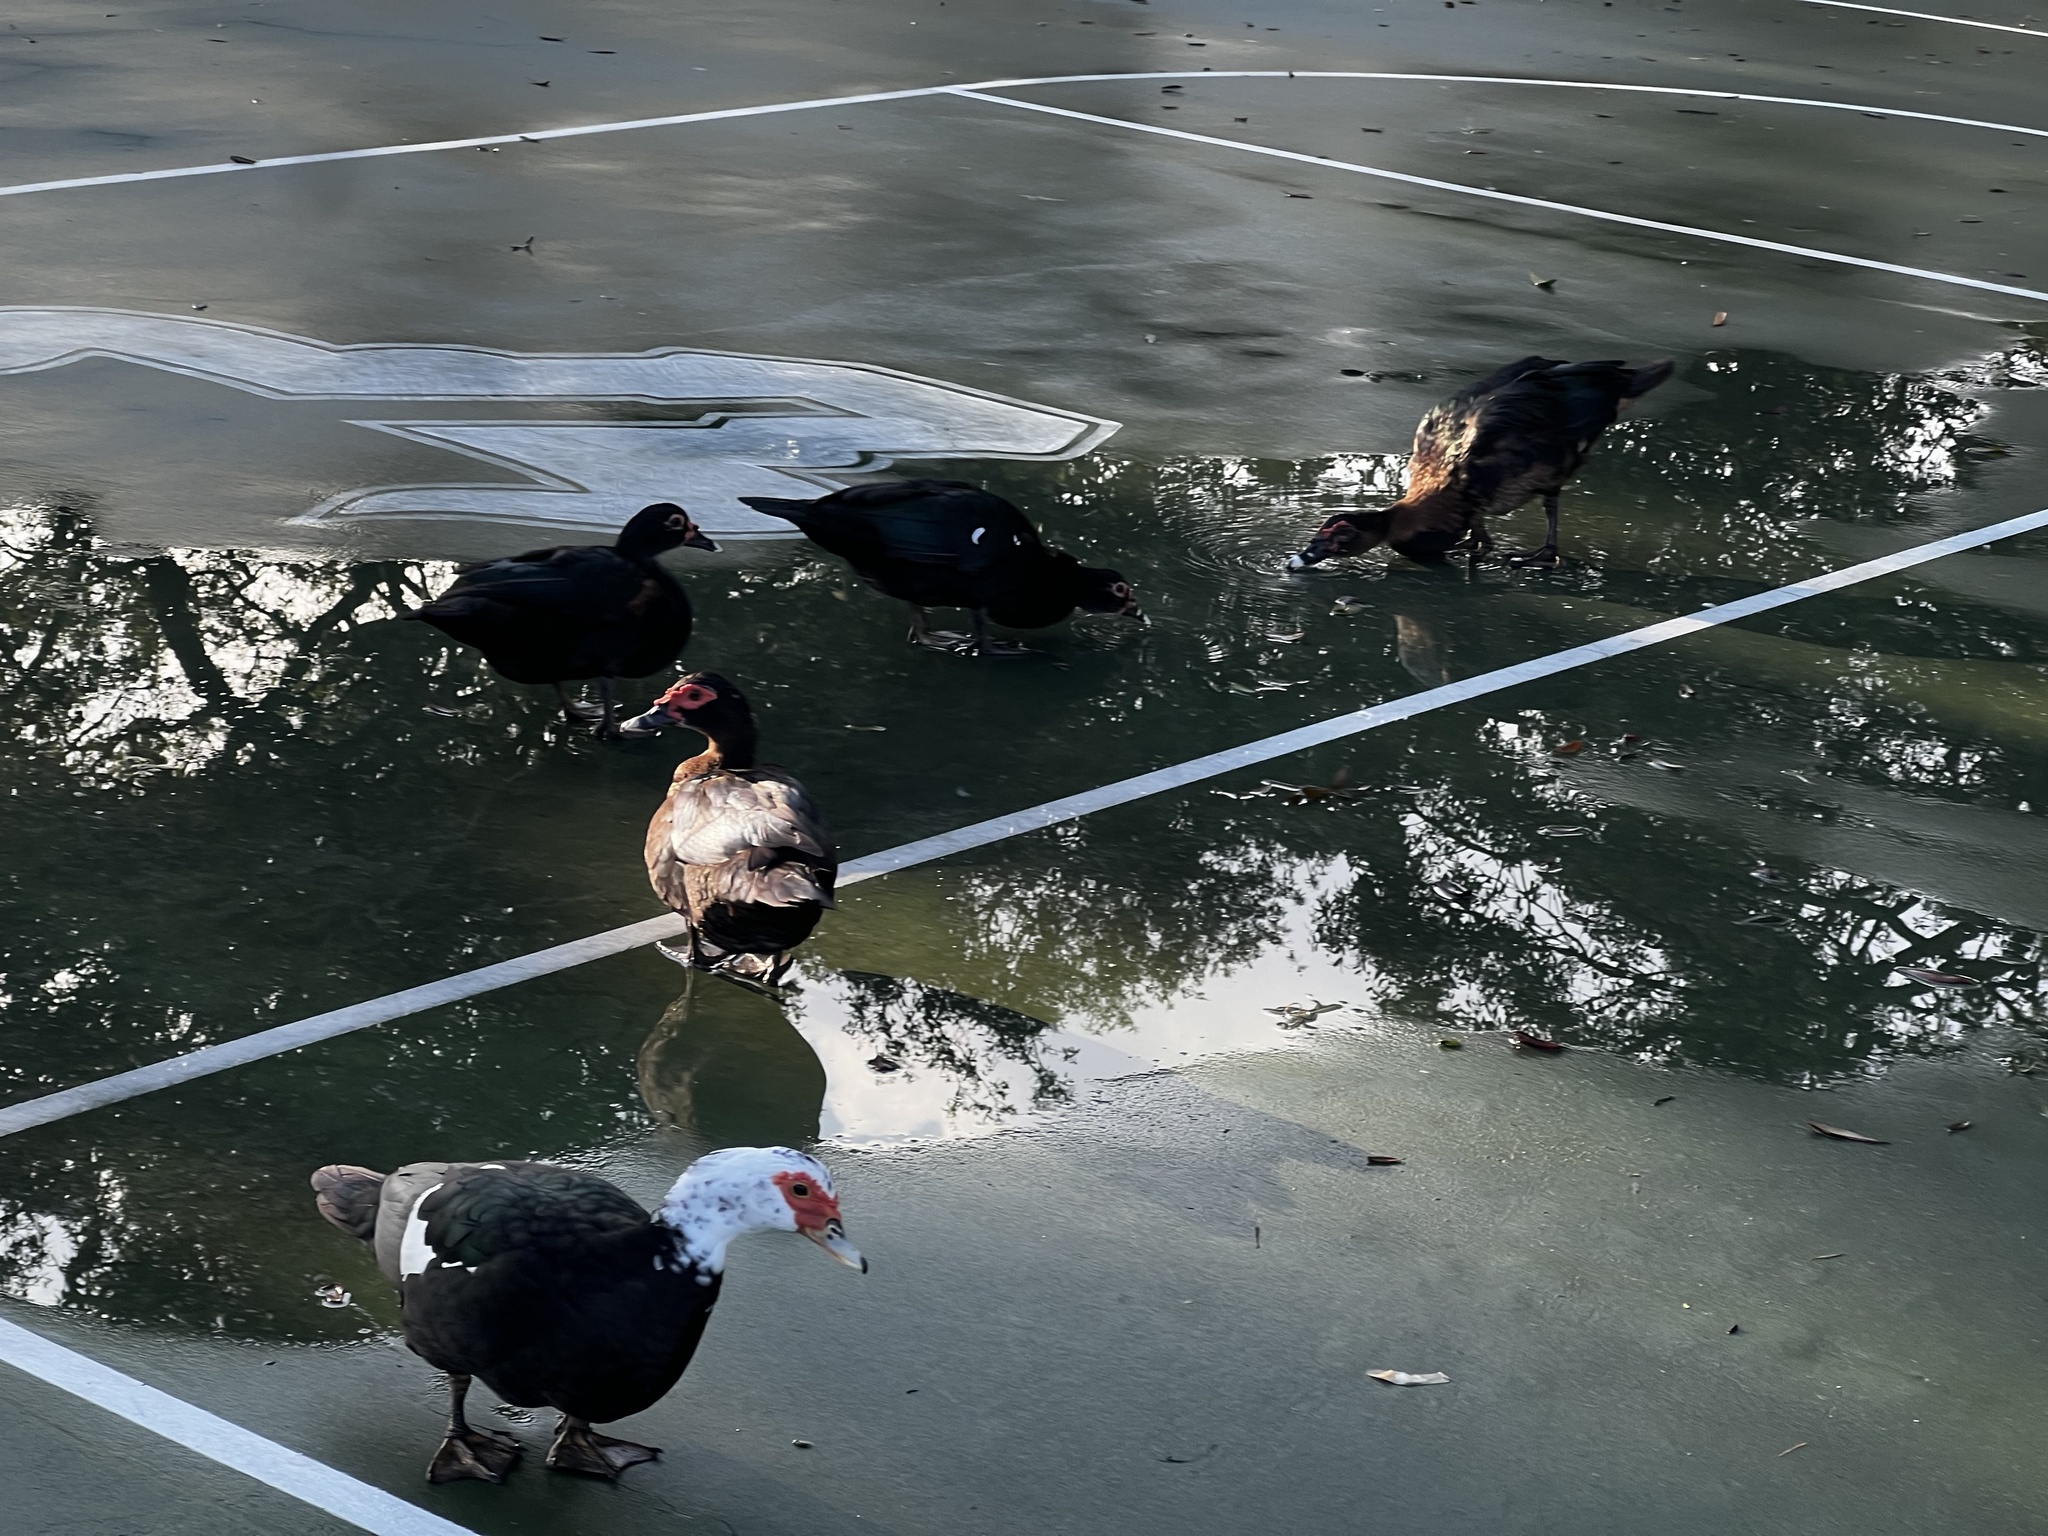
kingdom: Animalia
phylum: Chordata
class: Aves
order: Anseriformes
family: Anatidae
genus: Cairina
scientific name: Cairina moschata
